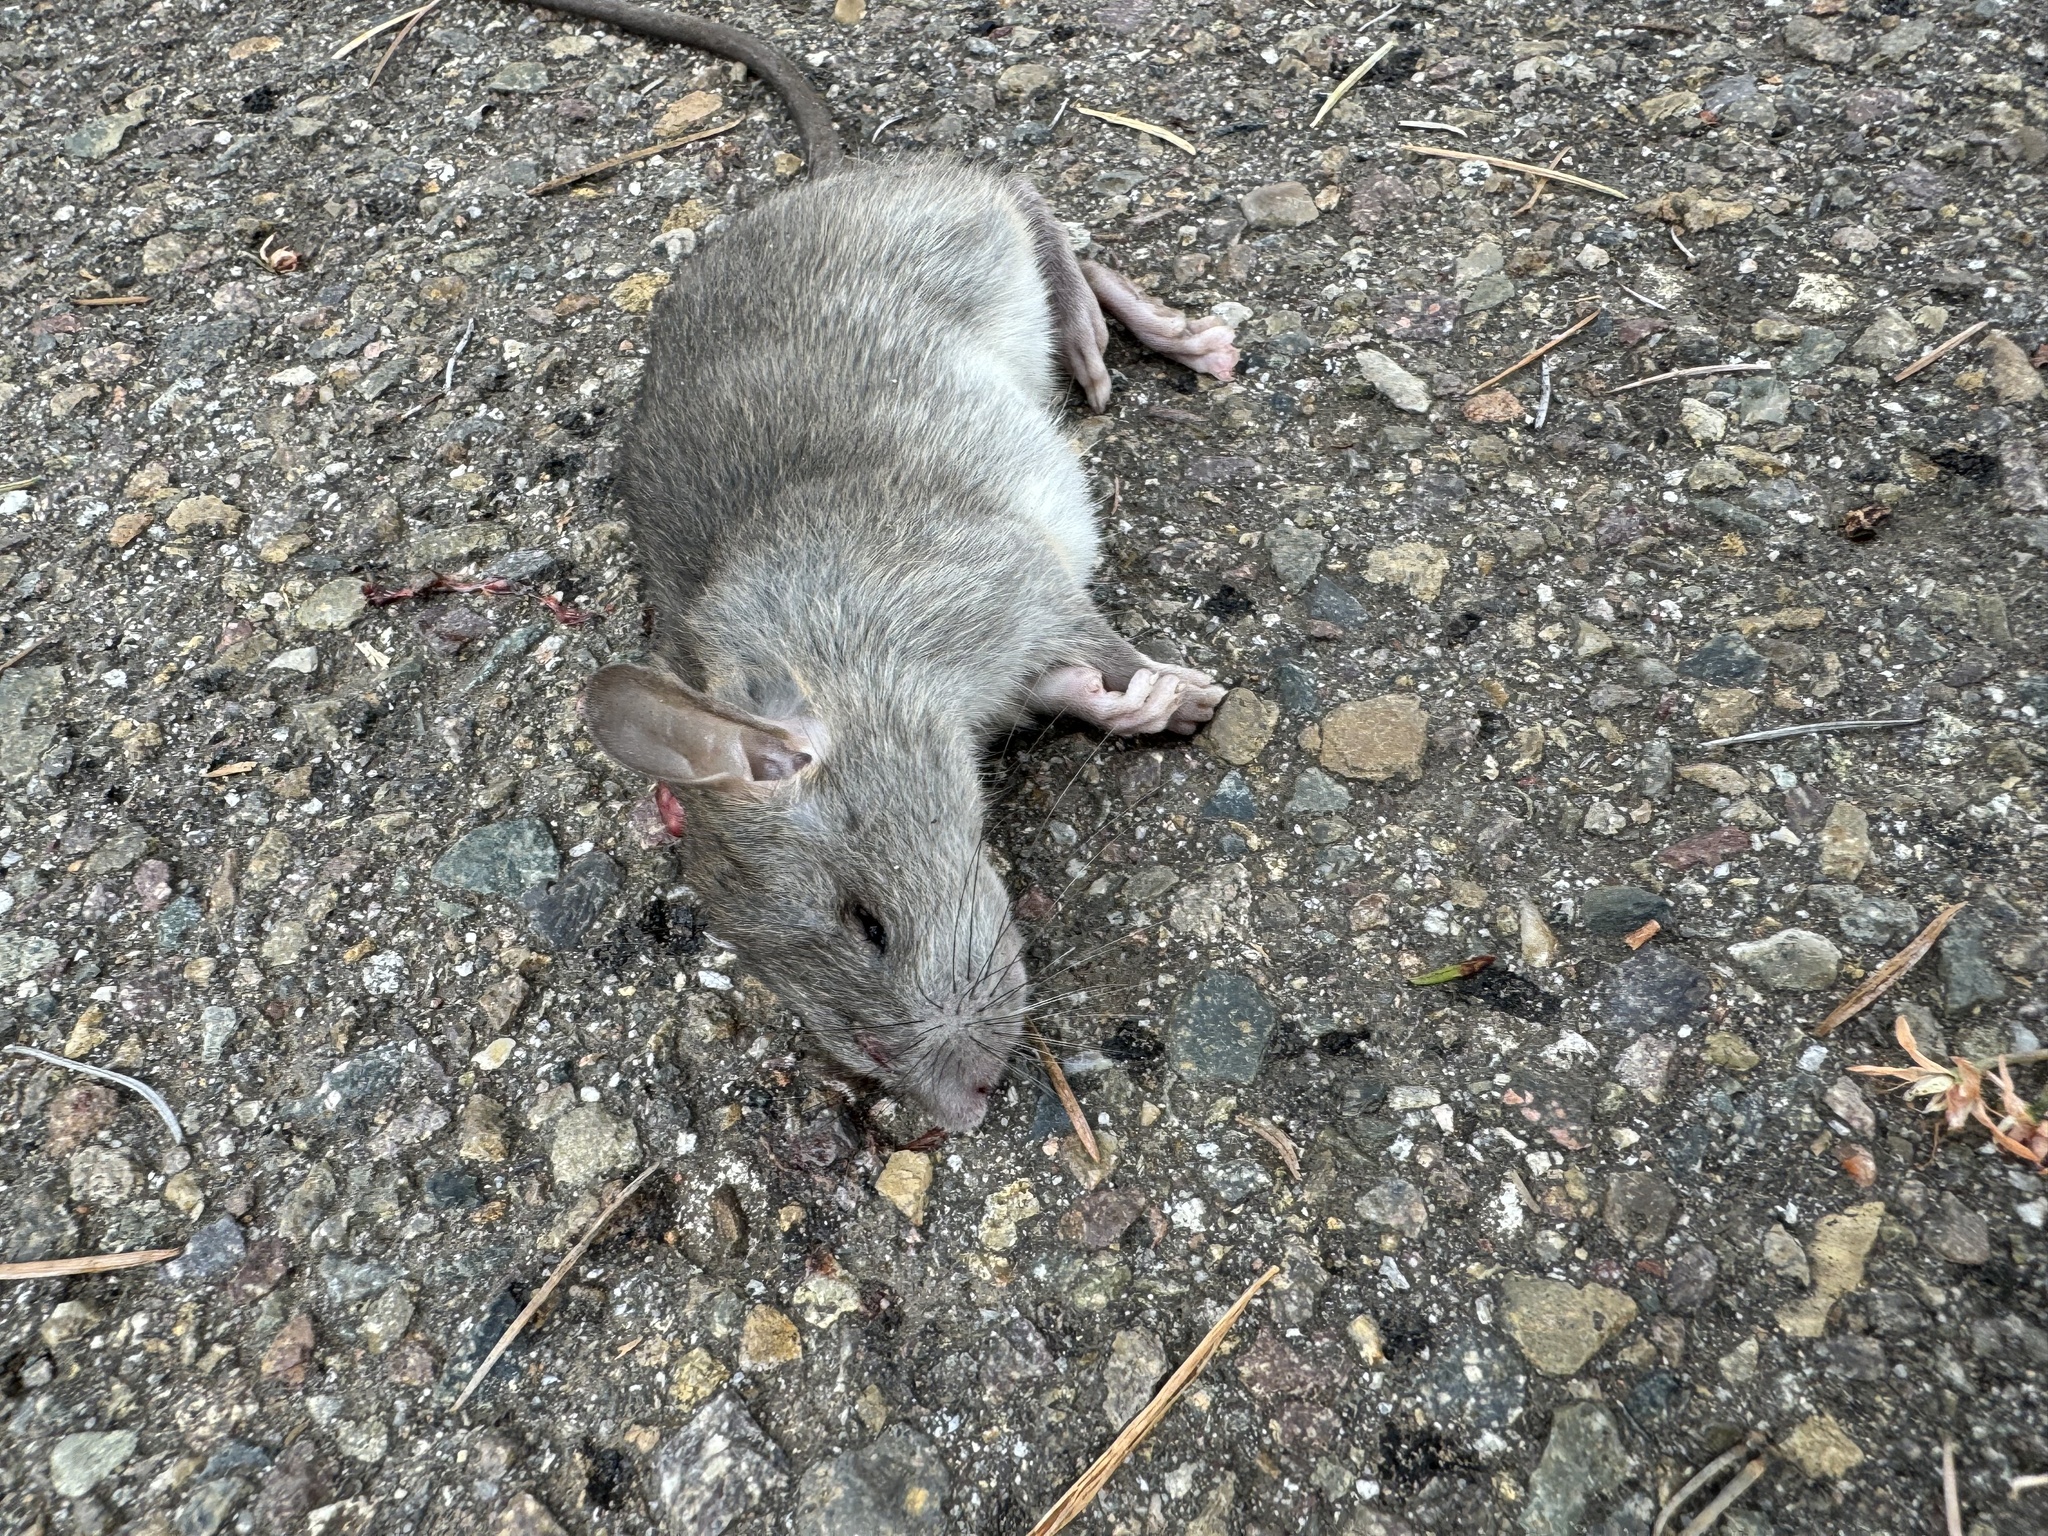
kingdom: Animalia
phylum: Chordata
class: Mammalia
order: Rodentia
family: Muridae
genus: Rattus
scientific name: Rattus rattus
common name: Black rat
